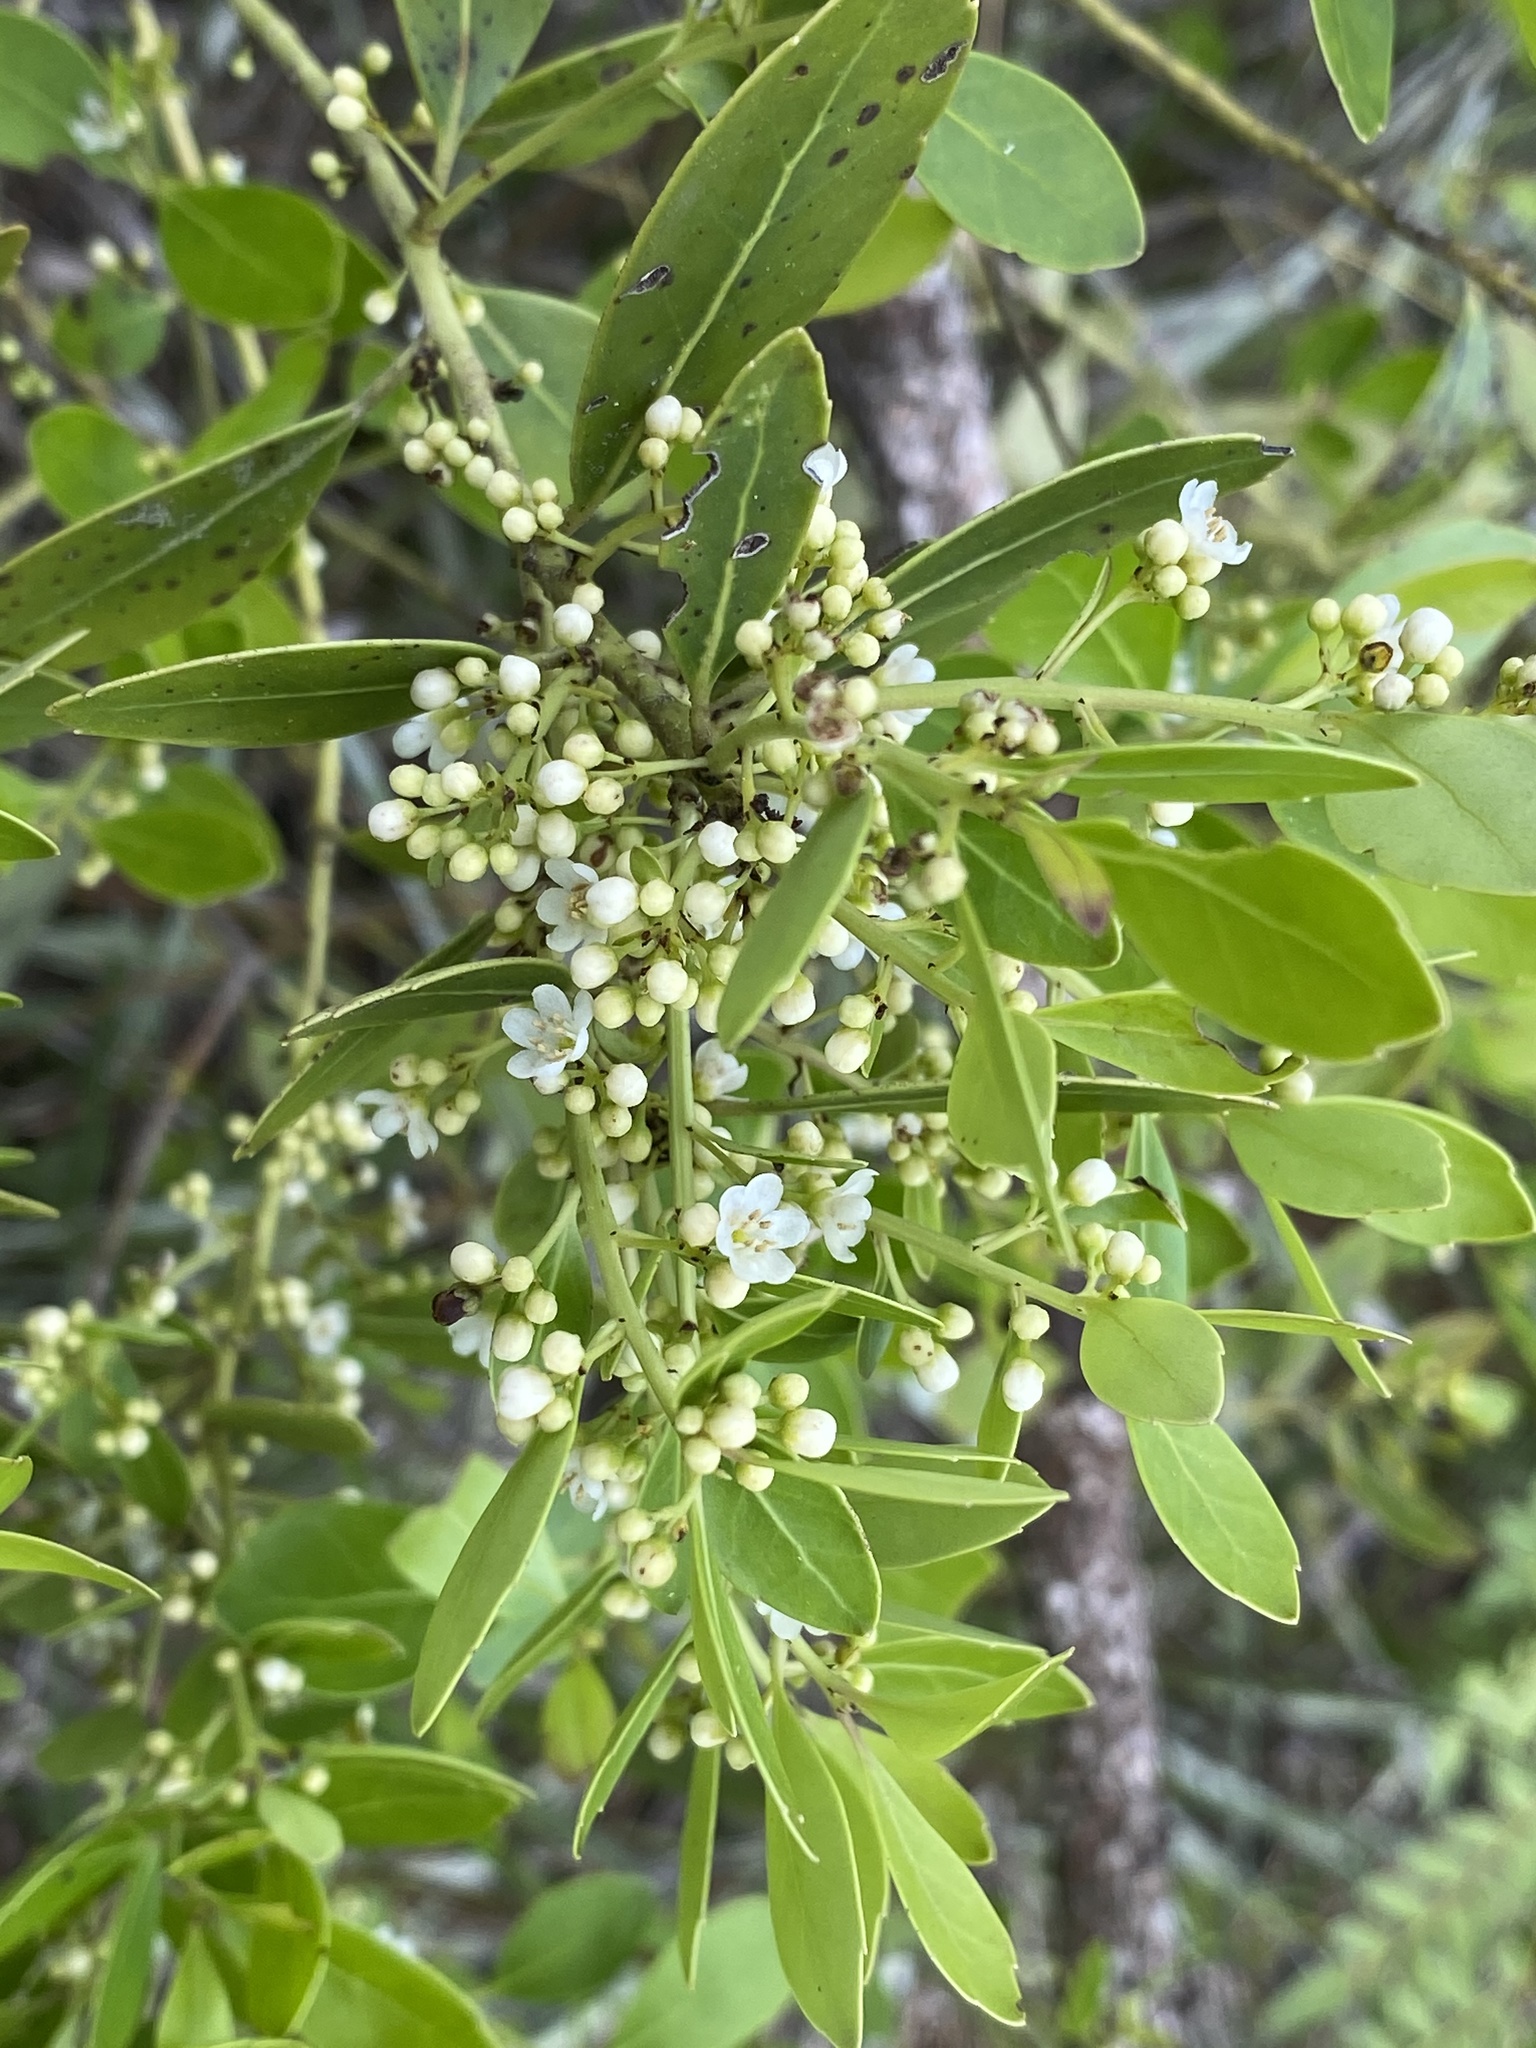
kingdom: Plantae
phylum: Tracheophyta
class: Magnoliopsida
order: Aquifoliales
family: Aquifoliaceae
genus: Ilex
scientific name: Ilex glabra
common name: Bitter gallberry
